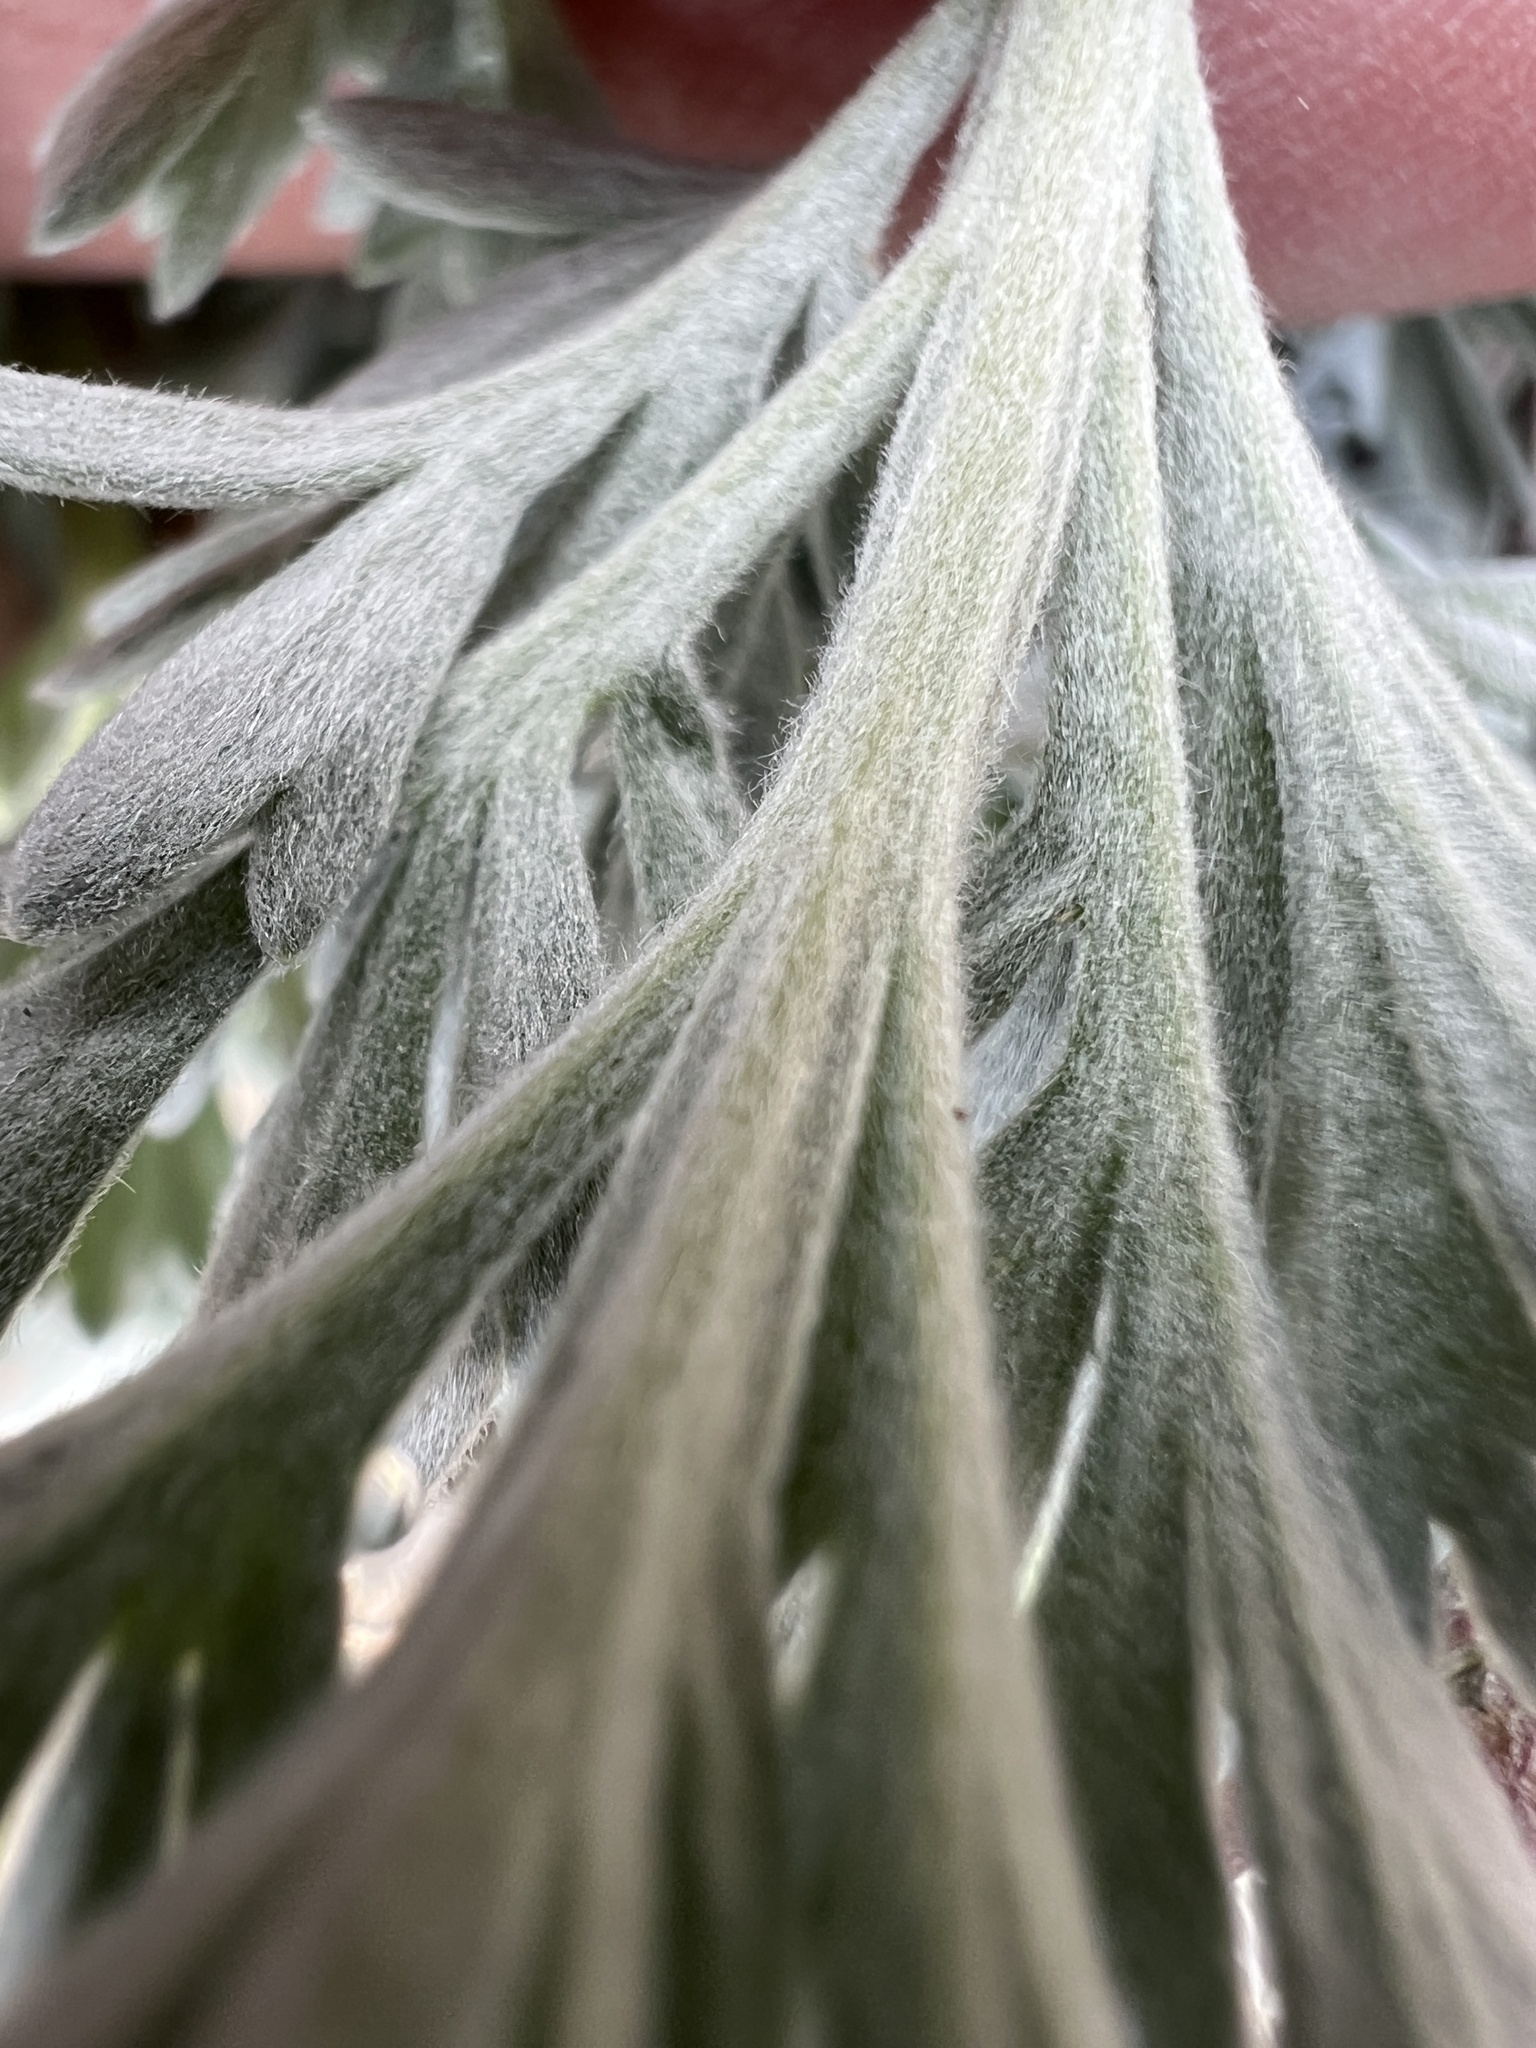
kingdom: Plantae
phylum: Tracheophyta
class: Magnoliopsida
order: Asterales
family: Asteraceae
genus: Artemisia
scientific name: Artemisia campestris
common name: Field wormwood
